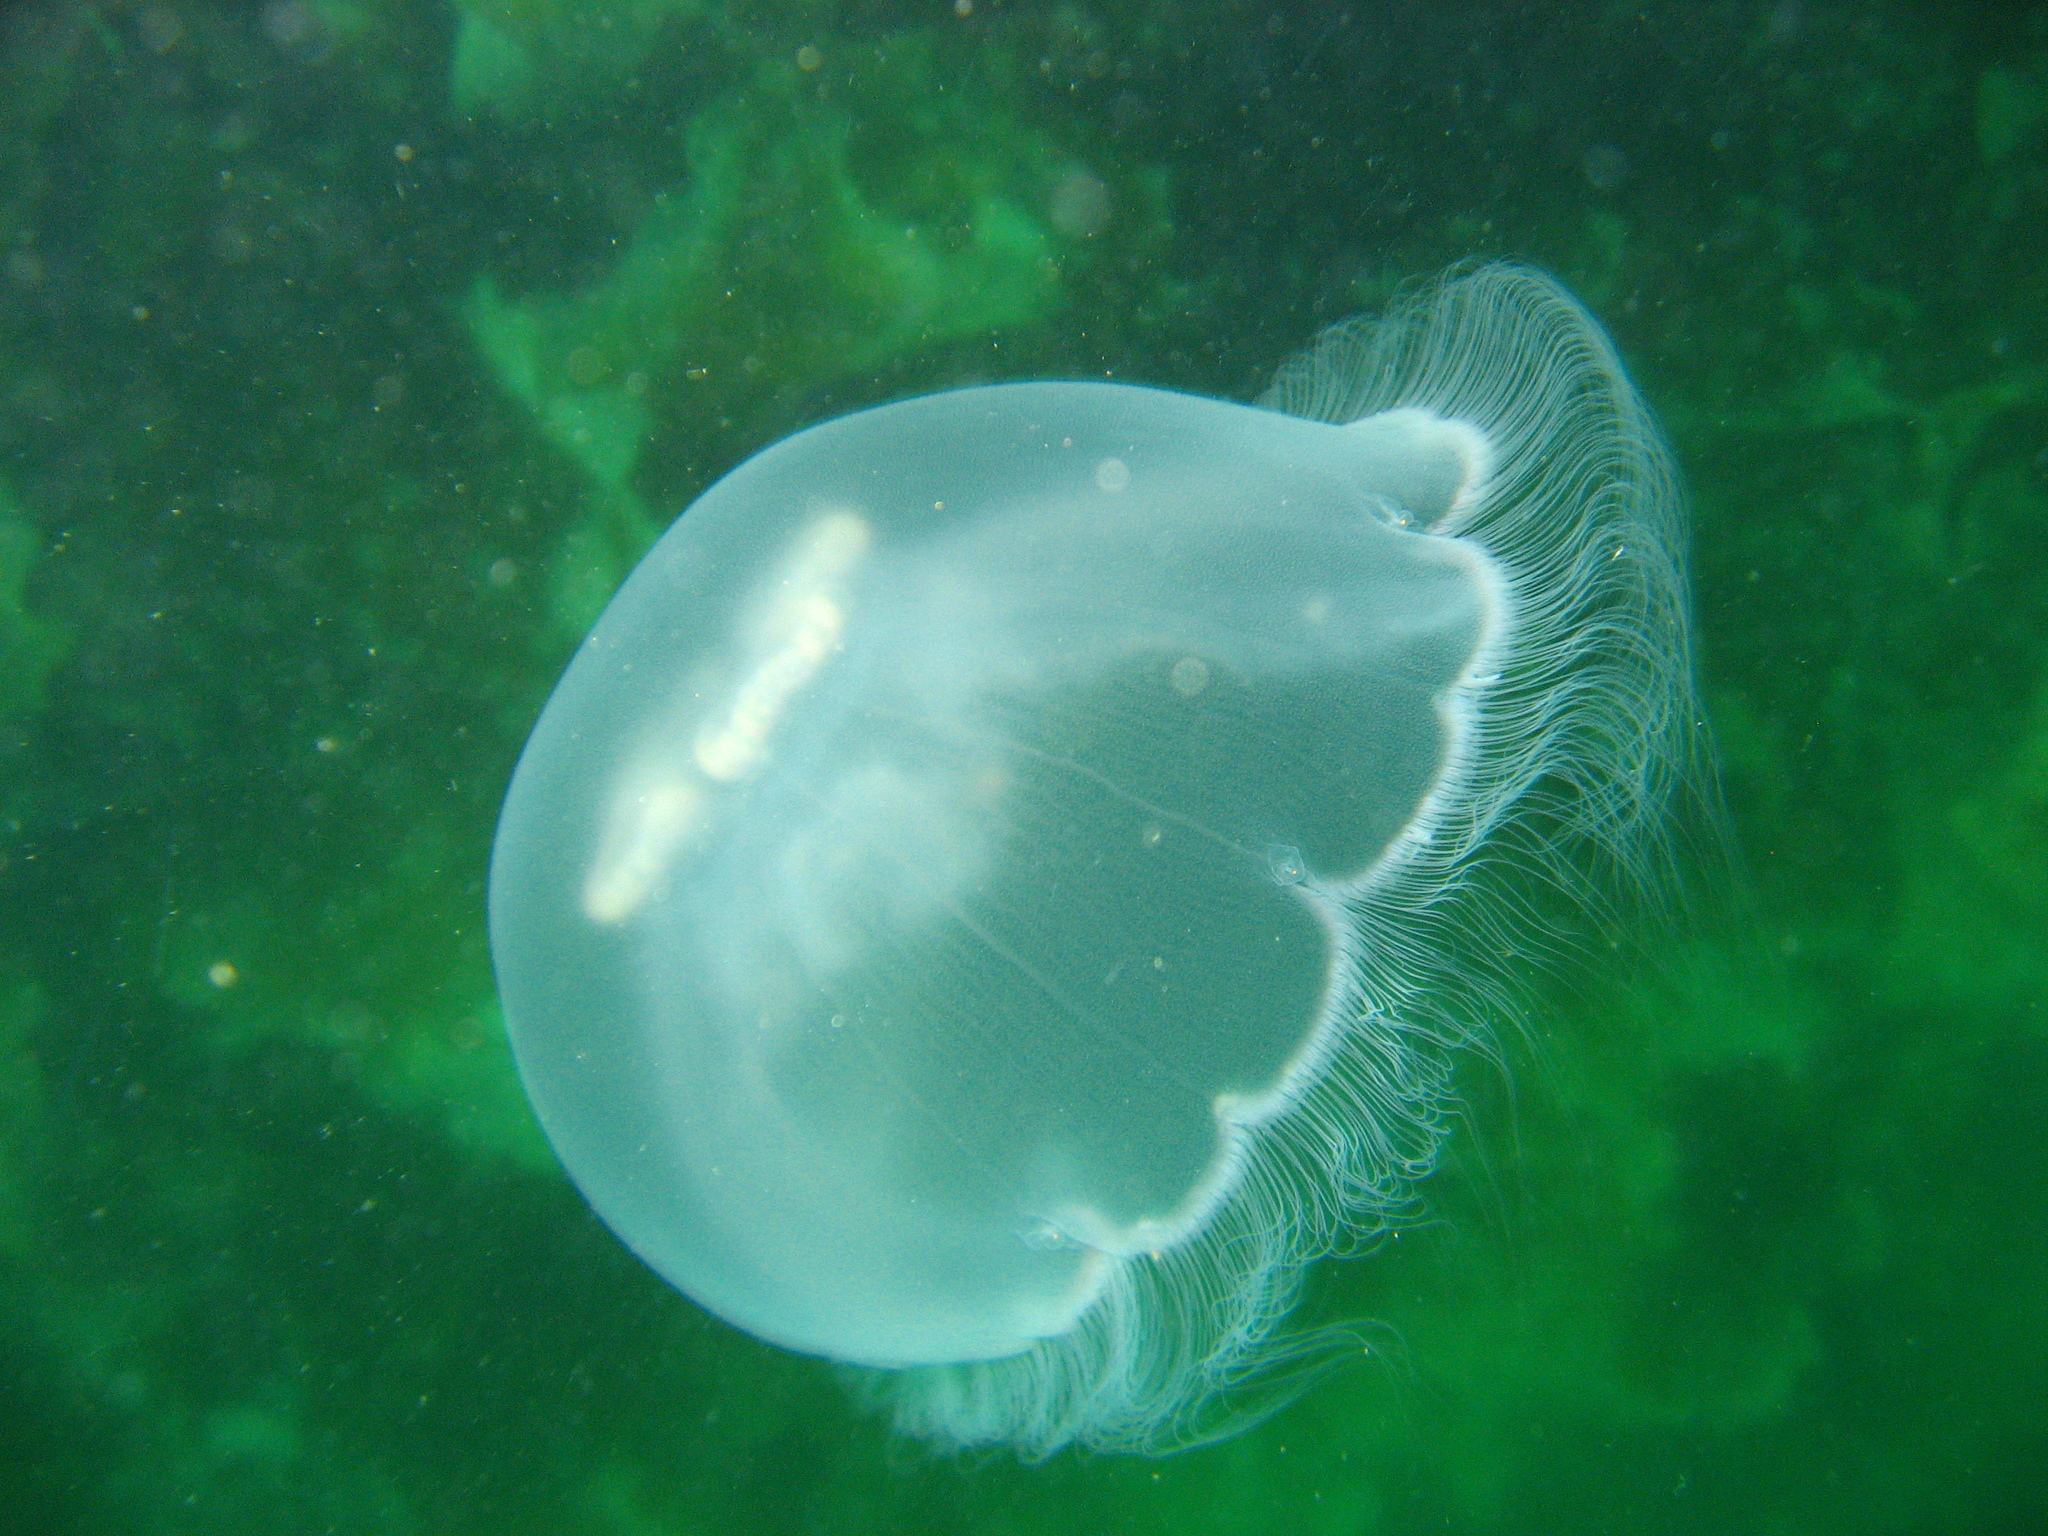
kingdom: Animalia
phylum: Cnidaria
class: Scyphozoa
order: Semaeostomeae
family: Ulmaridae
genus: Aurelia
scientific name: Aurelia labiata
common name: Pacific moon jelly
